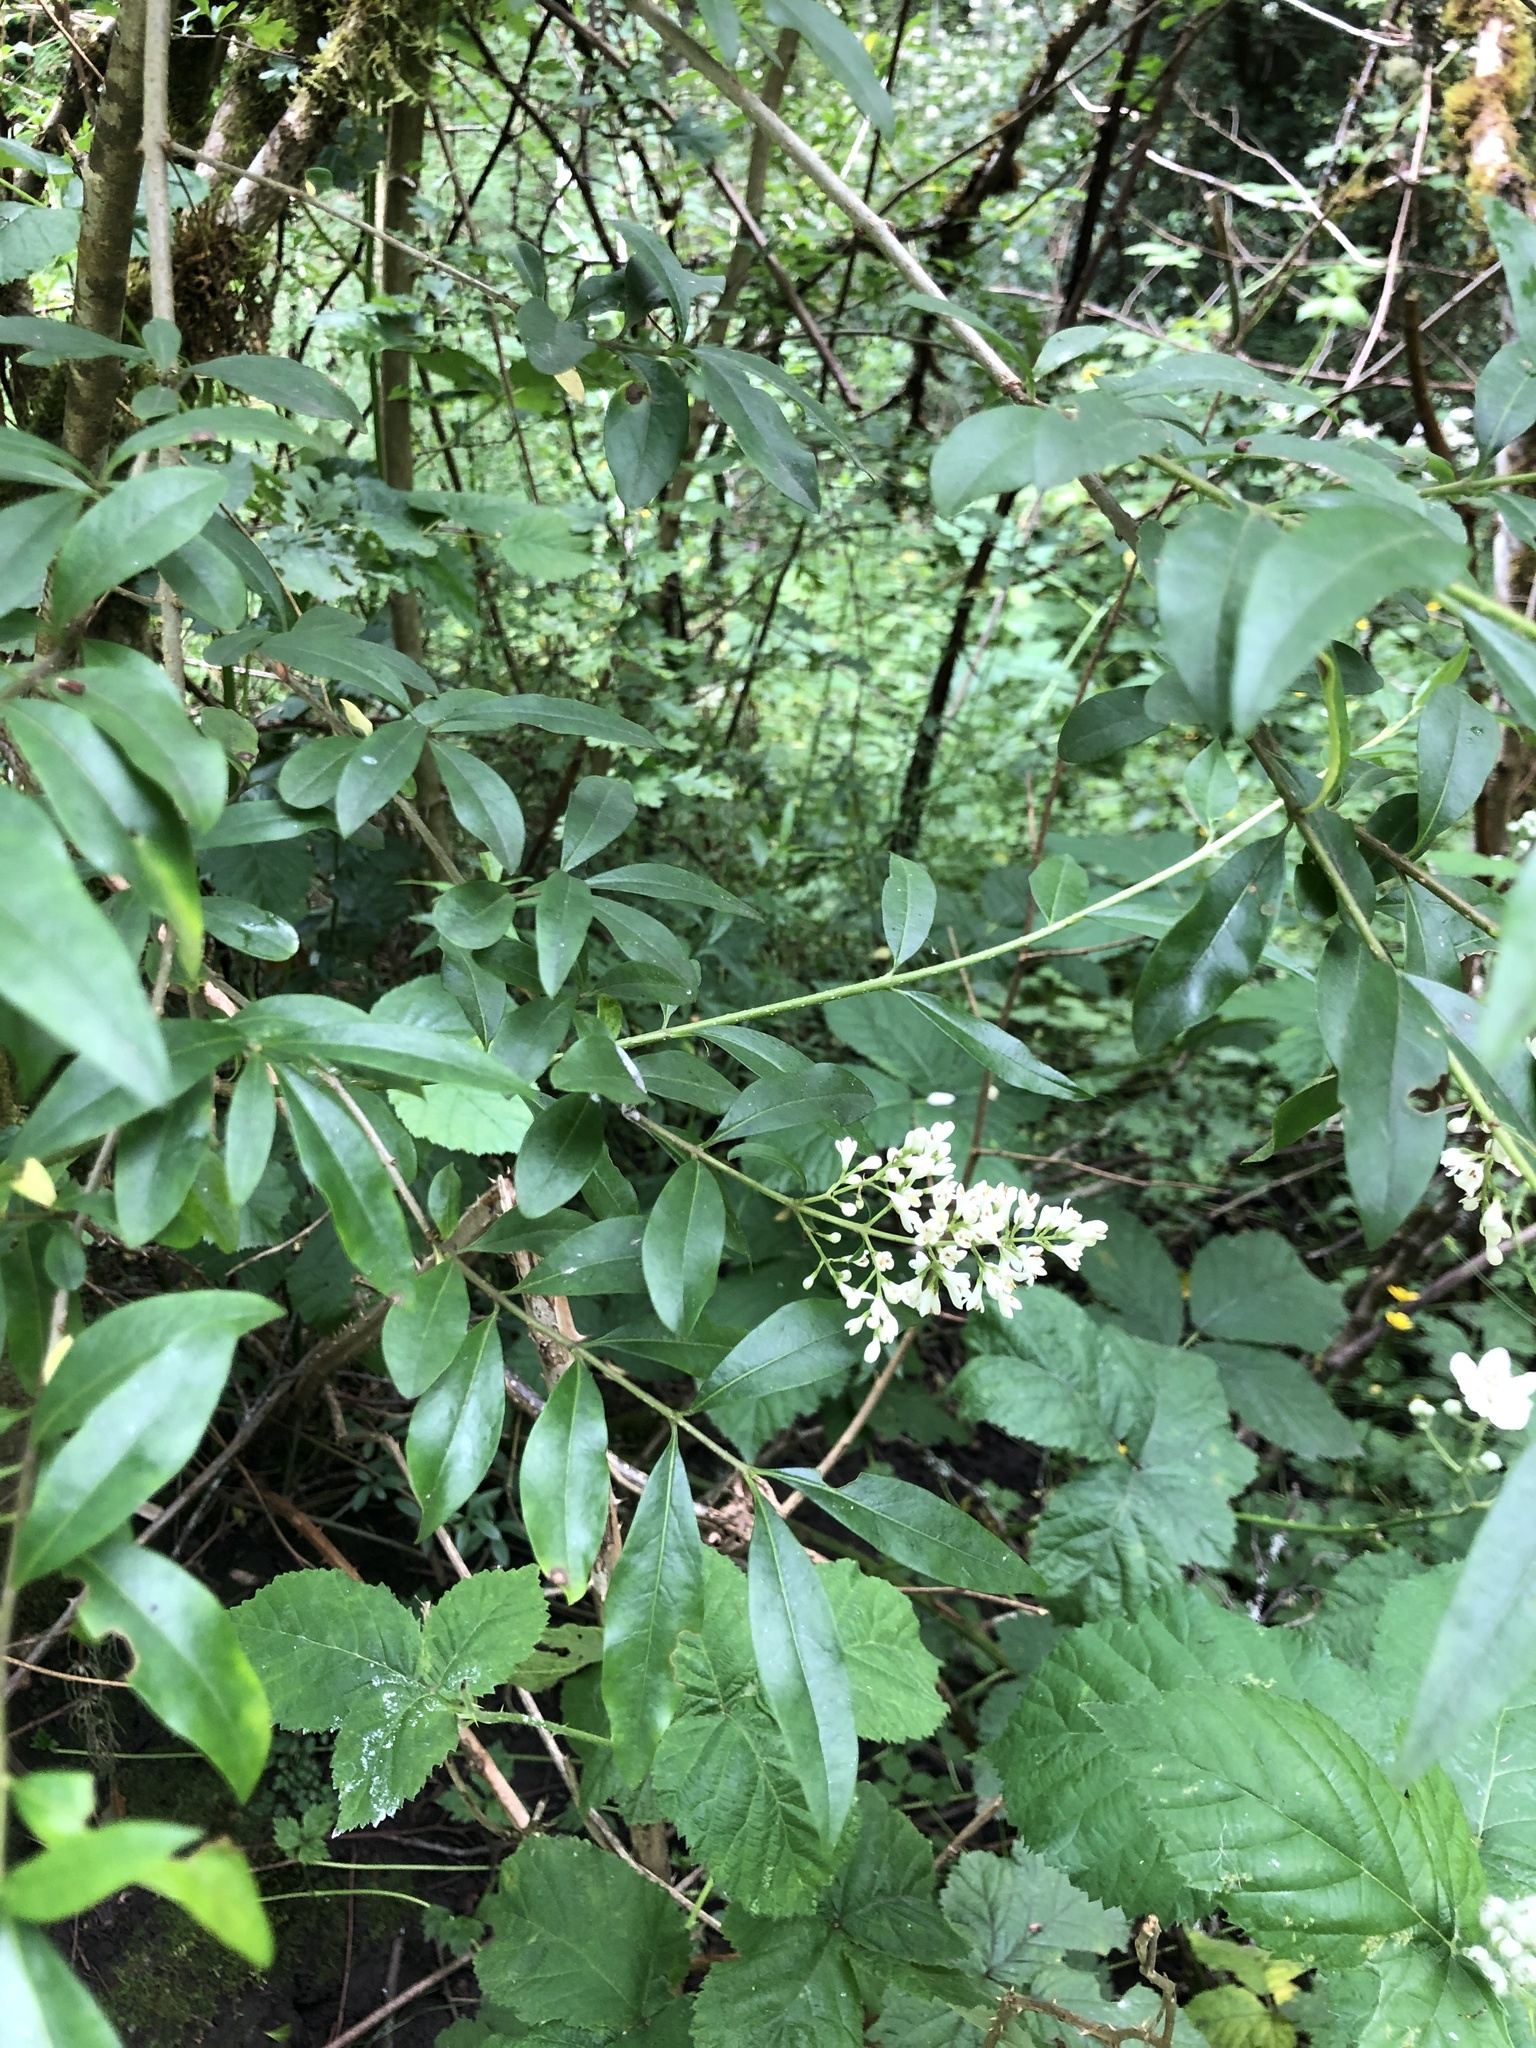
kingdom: Plantae
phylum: Tracheophyta
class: Magnoliopsida
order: Lamiales
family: Oleaceae
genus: Ligustrum
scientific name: Ligustrum vulgare
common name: Wild privet
